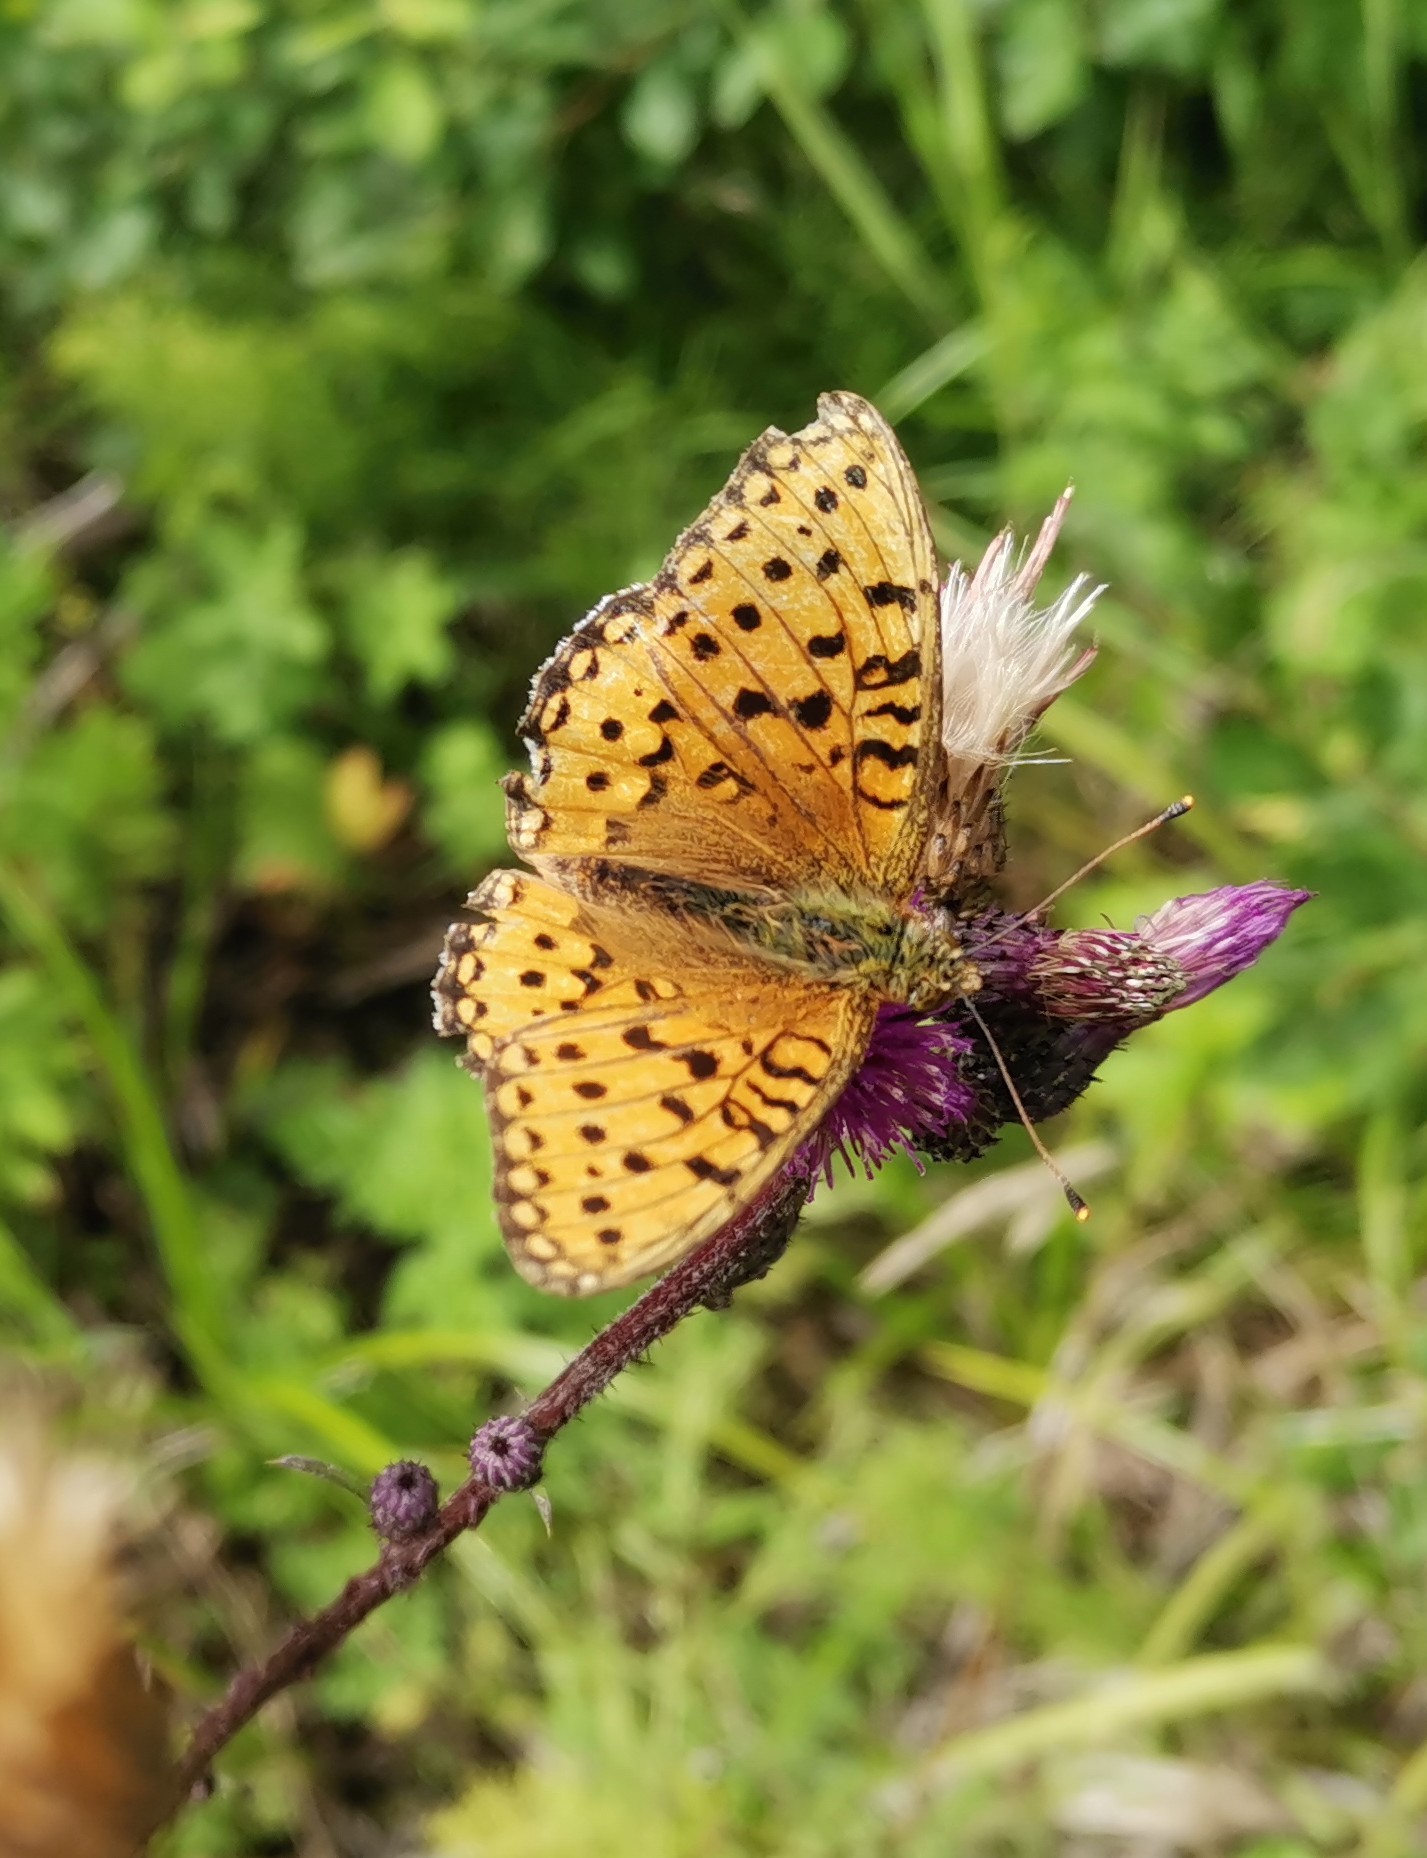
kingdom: Animalia
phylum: Arthropoda
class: Insecta
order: Lepidoptera
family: Nymphalidae
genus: Speyeria
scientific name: Speyeria aglaja
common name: Dark green fritillary
